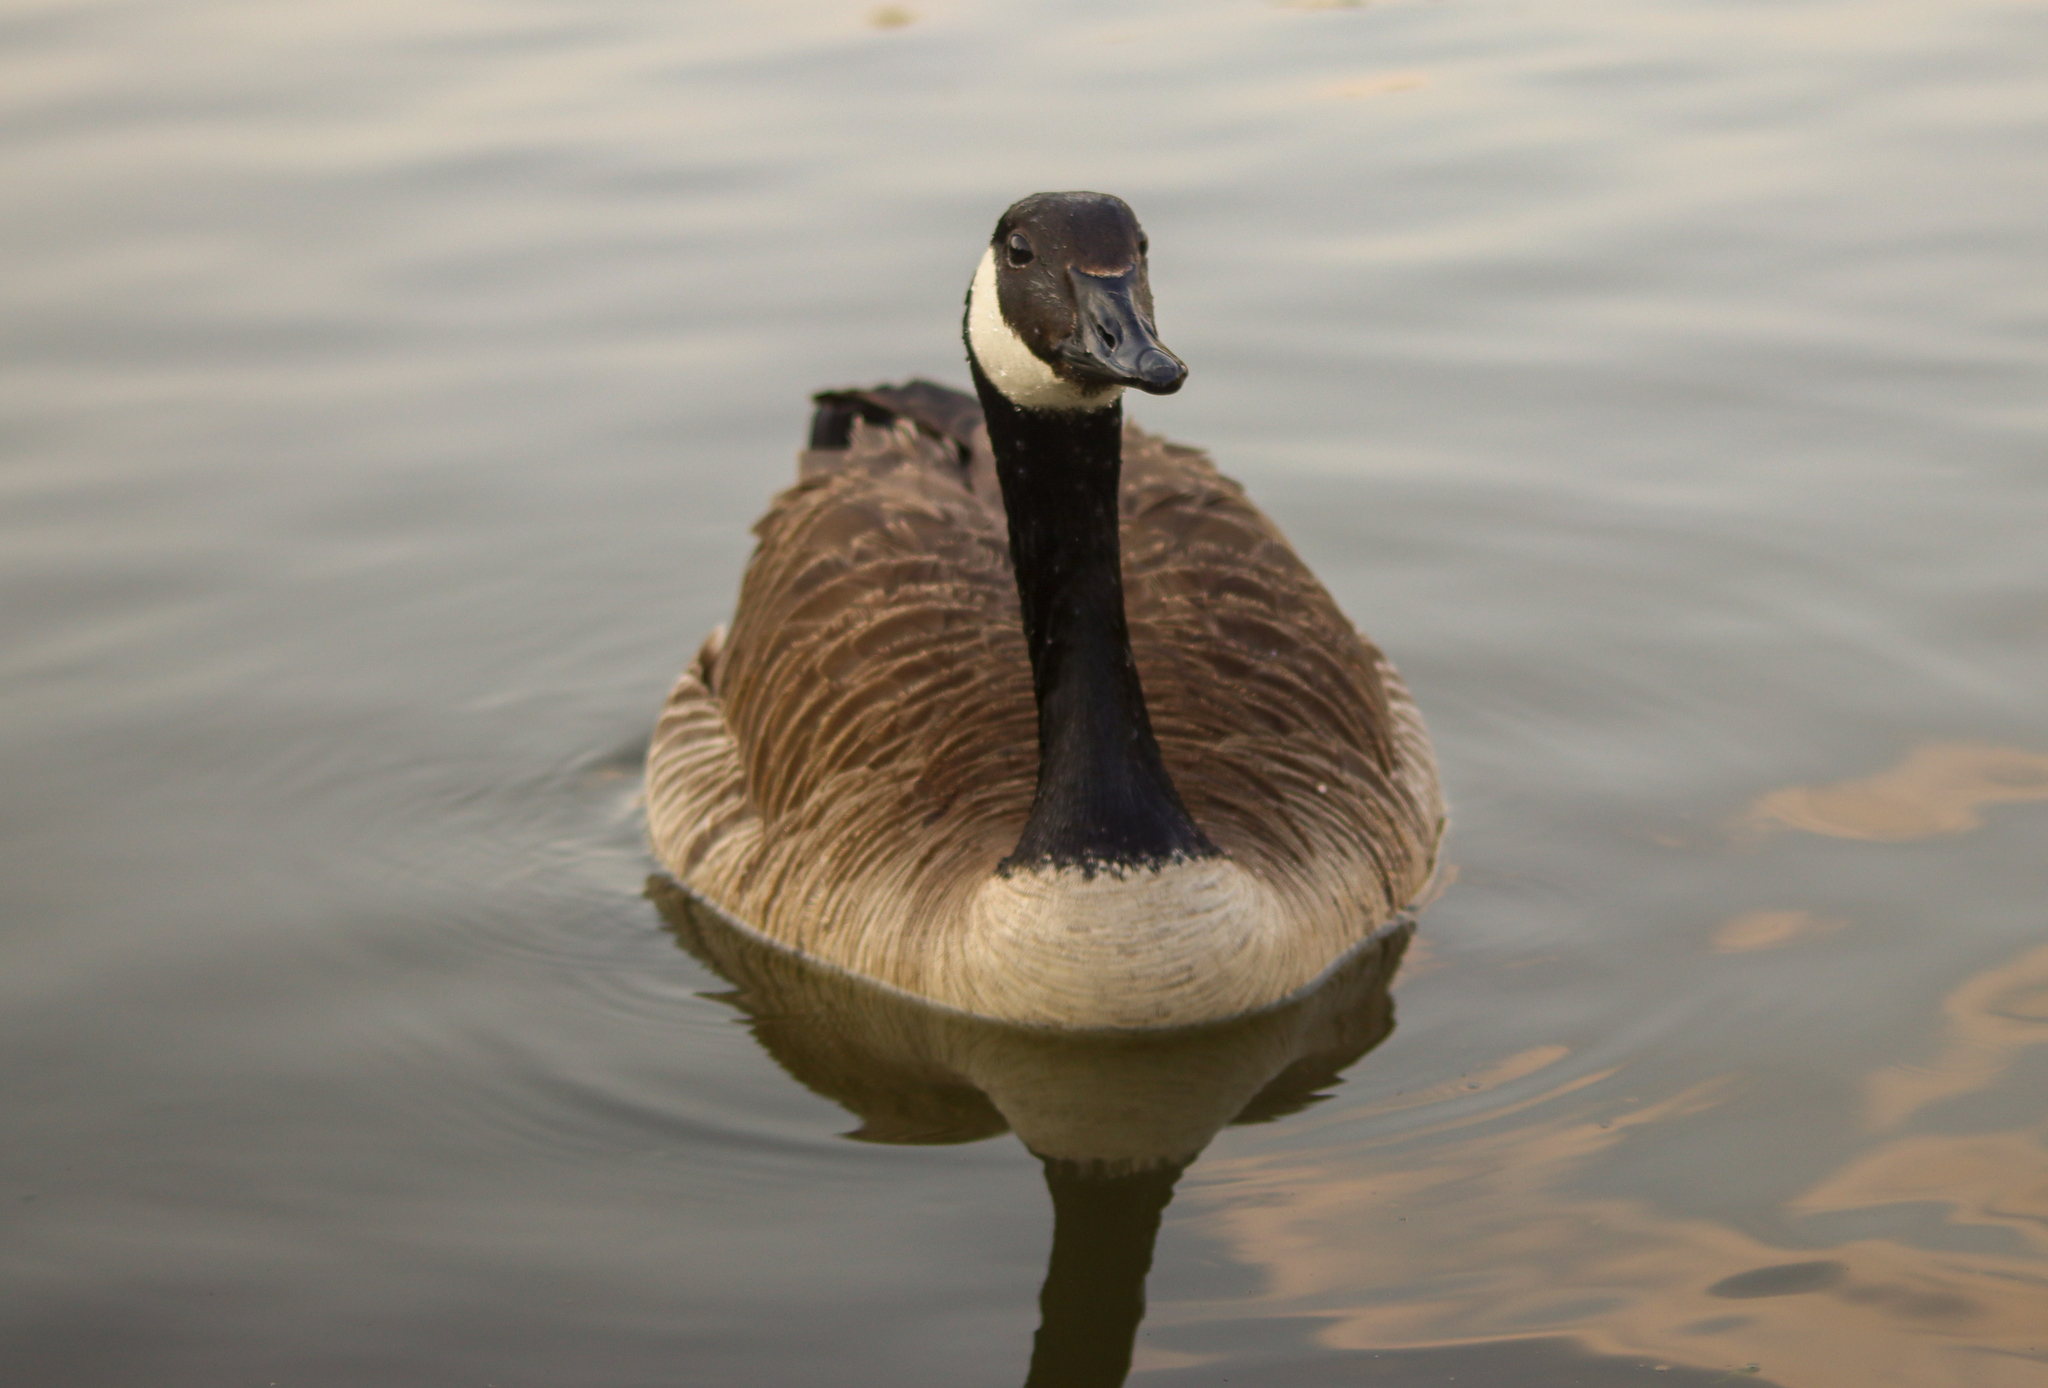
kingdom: Animalia
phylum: Chordata
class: Aves
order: Anseriformes
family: Anatidae
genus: Branta
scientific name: Branta canadensis
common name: Canada goose
